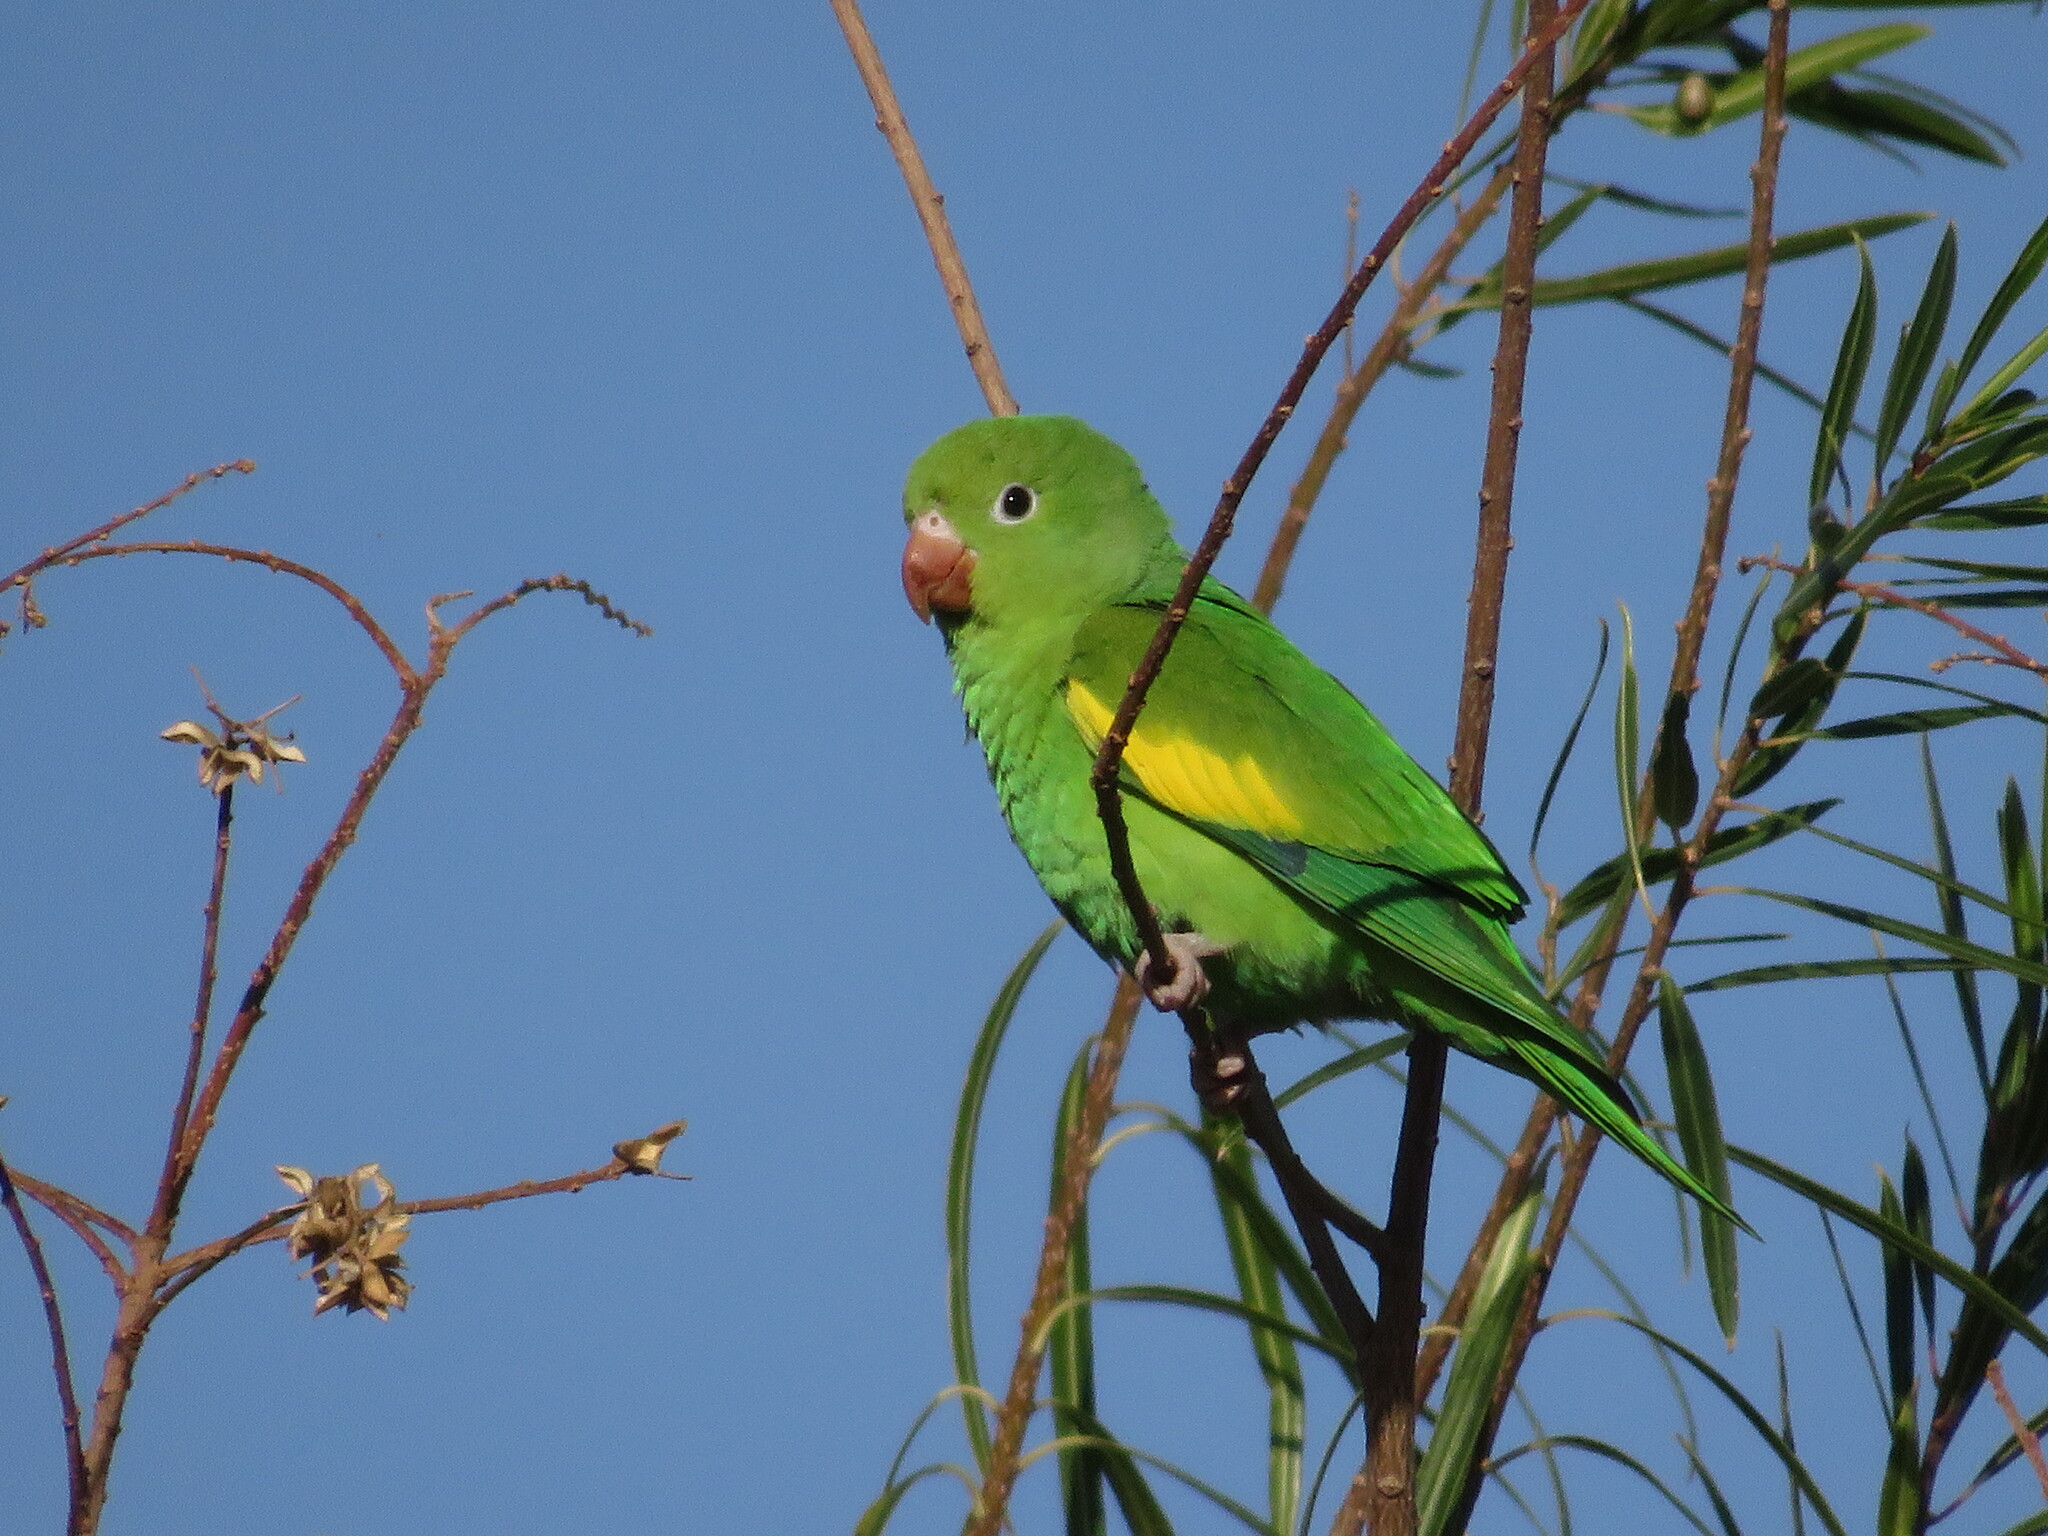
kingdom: Animalia
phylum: Chordata
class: Aves
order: Psittaciformes
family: Psittacidae
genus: Brotogeris
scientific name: Brotogeris chiriri
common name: Yellow-chevroned parakeet
